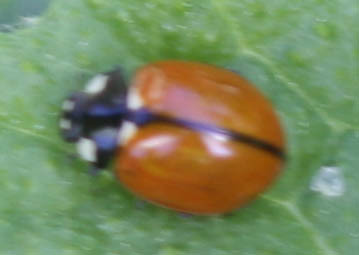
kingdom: Animalia
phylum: Arthropoda
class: Insecta
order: Coleoptera
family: Coccinellidae
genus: Coccinella
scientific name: Coccinella californica
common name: Lady beetle
